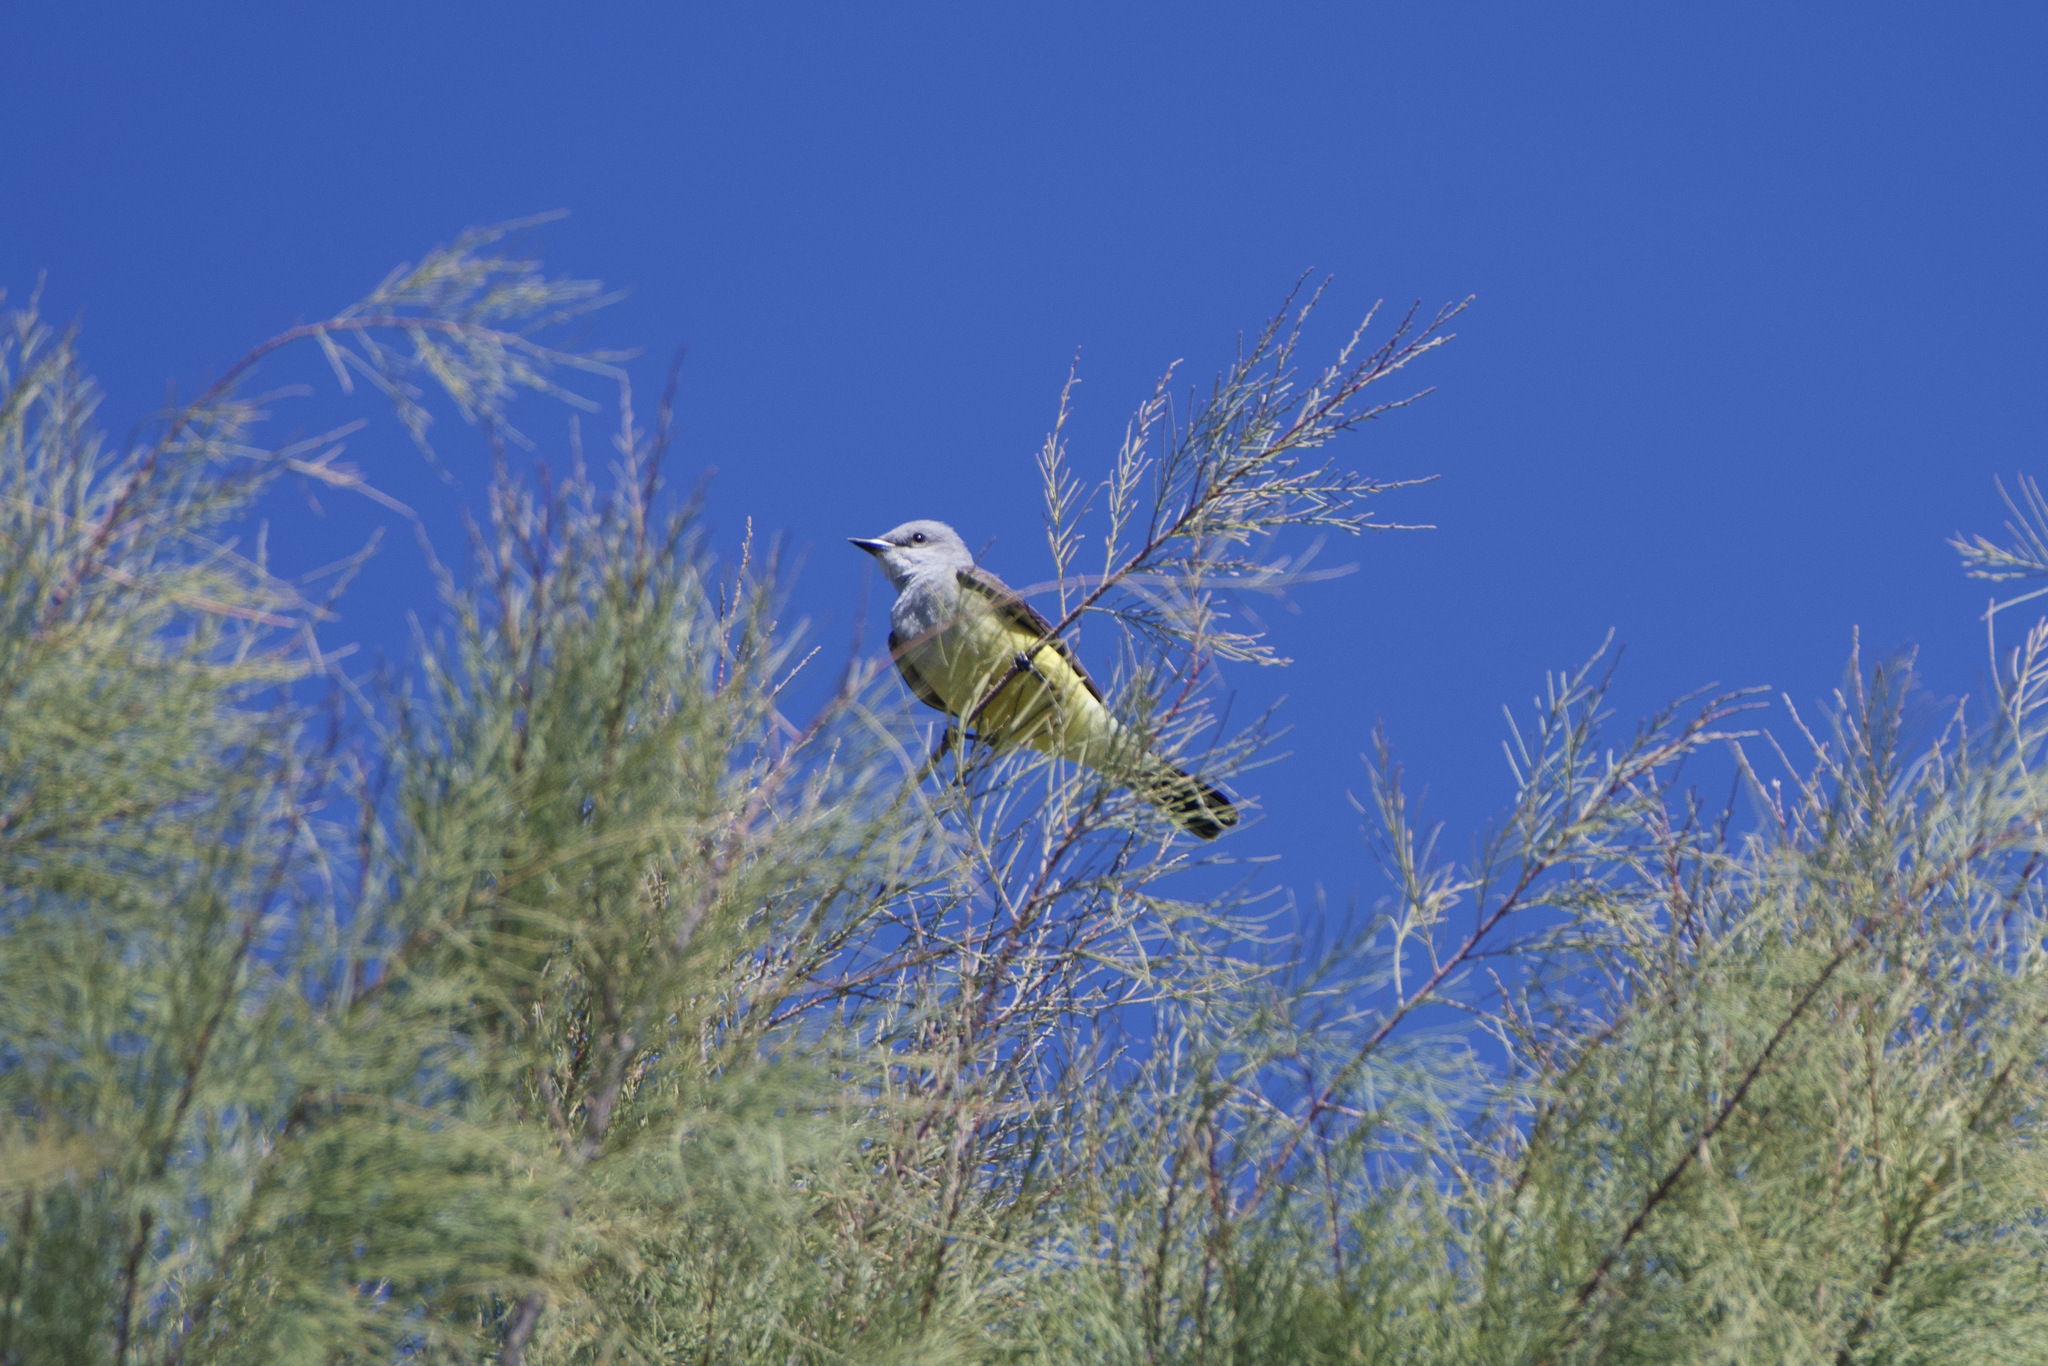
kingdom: Animalia
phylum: Chordata
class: Aves
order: Passeriformes
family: Tyrannidae
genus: Tyrannus
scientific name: Tyrannus verticalis
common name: Western kingbird
